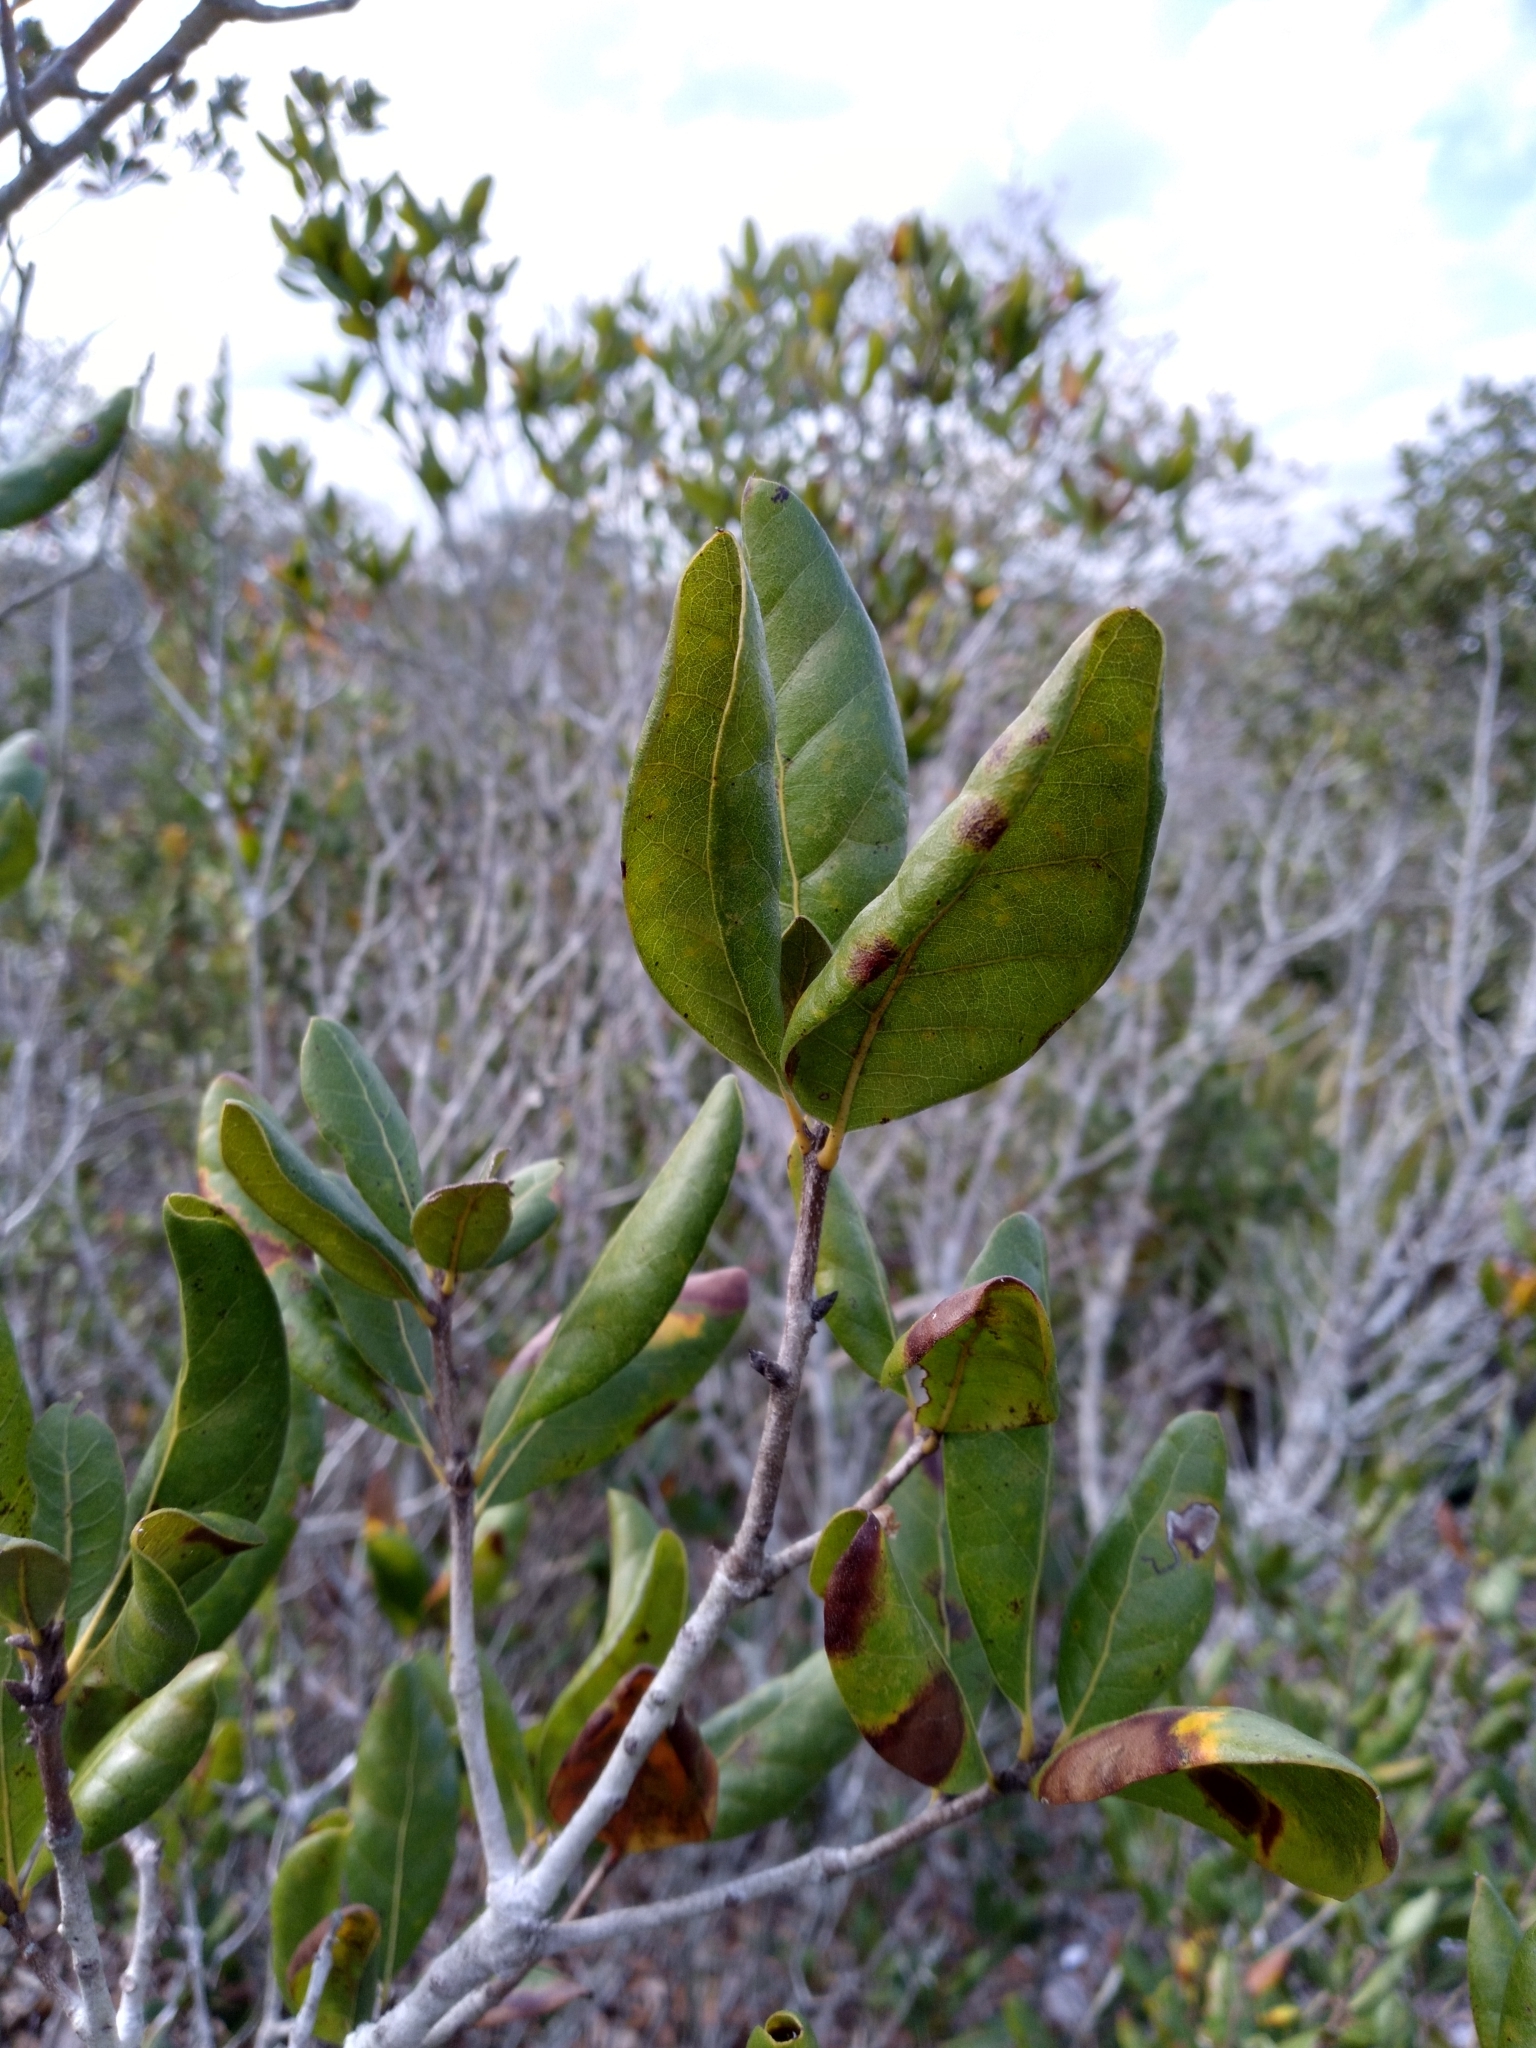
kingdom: Plantae
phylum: Tracheophyta
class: Magnoliopsida
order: Fagales
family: Fagaceae
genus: Quercus
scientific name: Quercus inopina
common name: Sandhill oak
